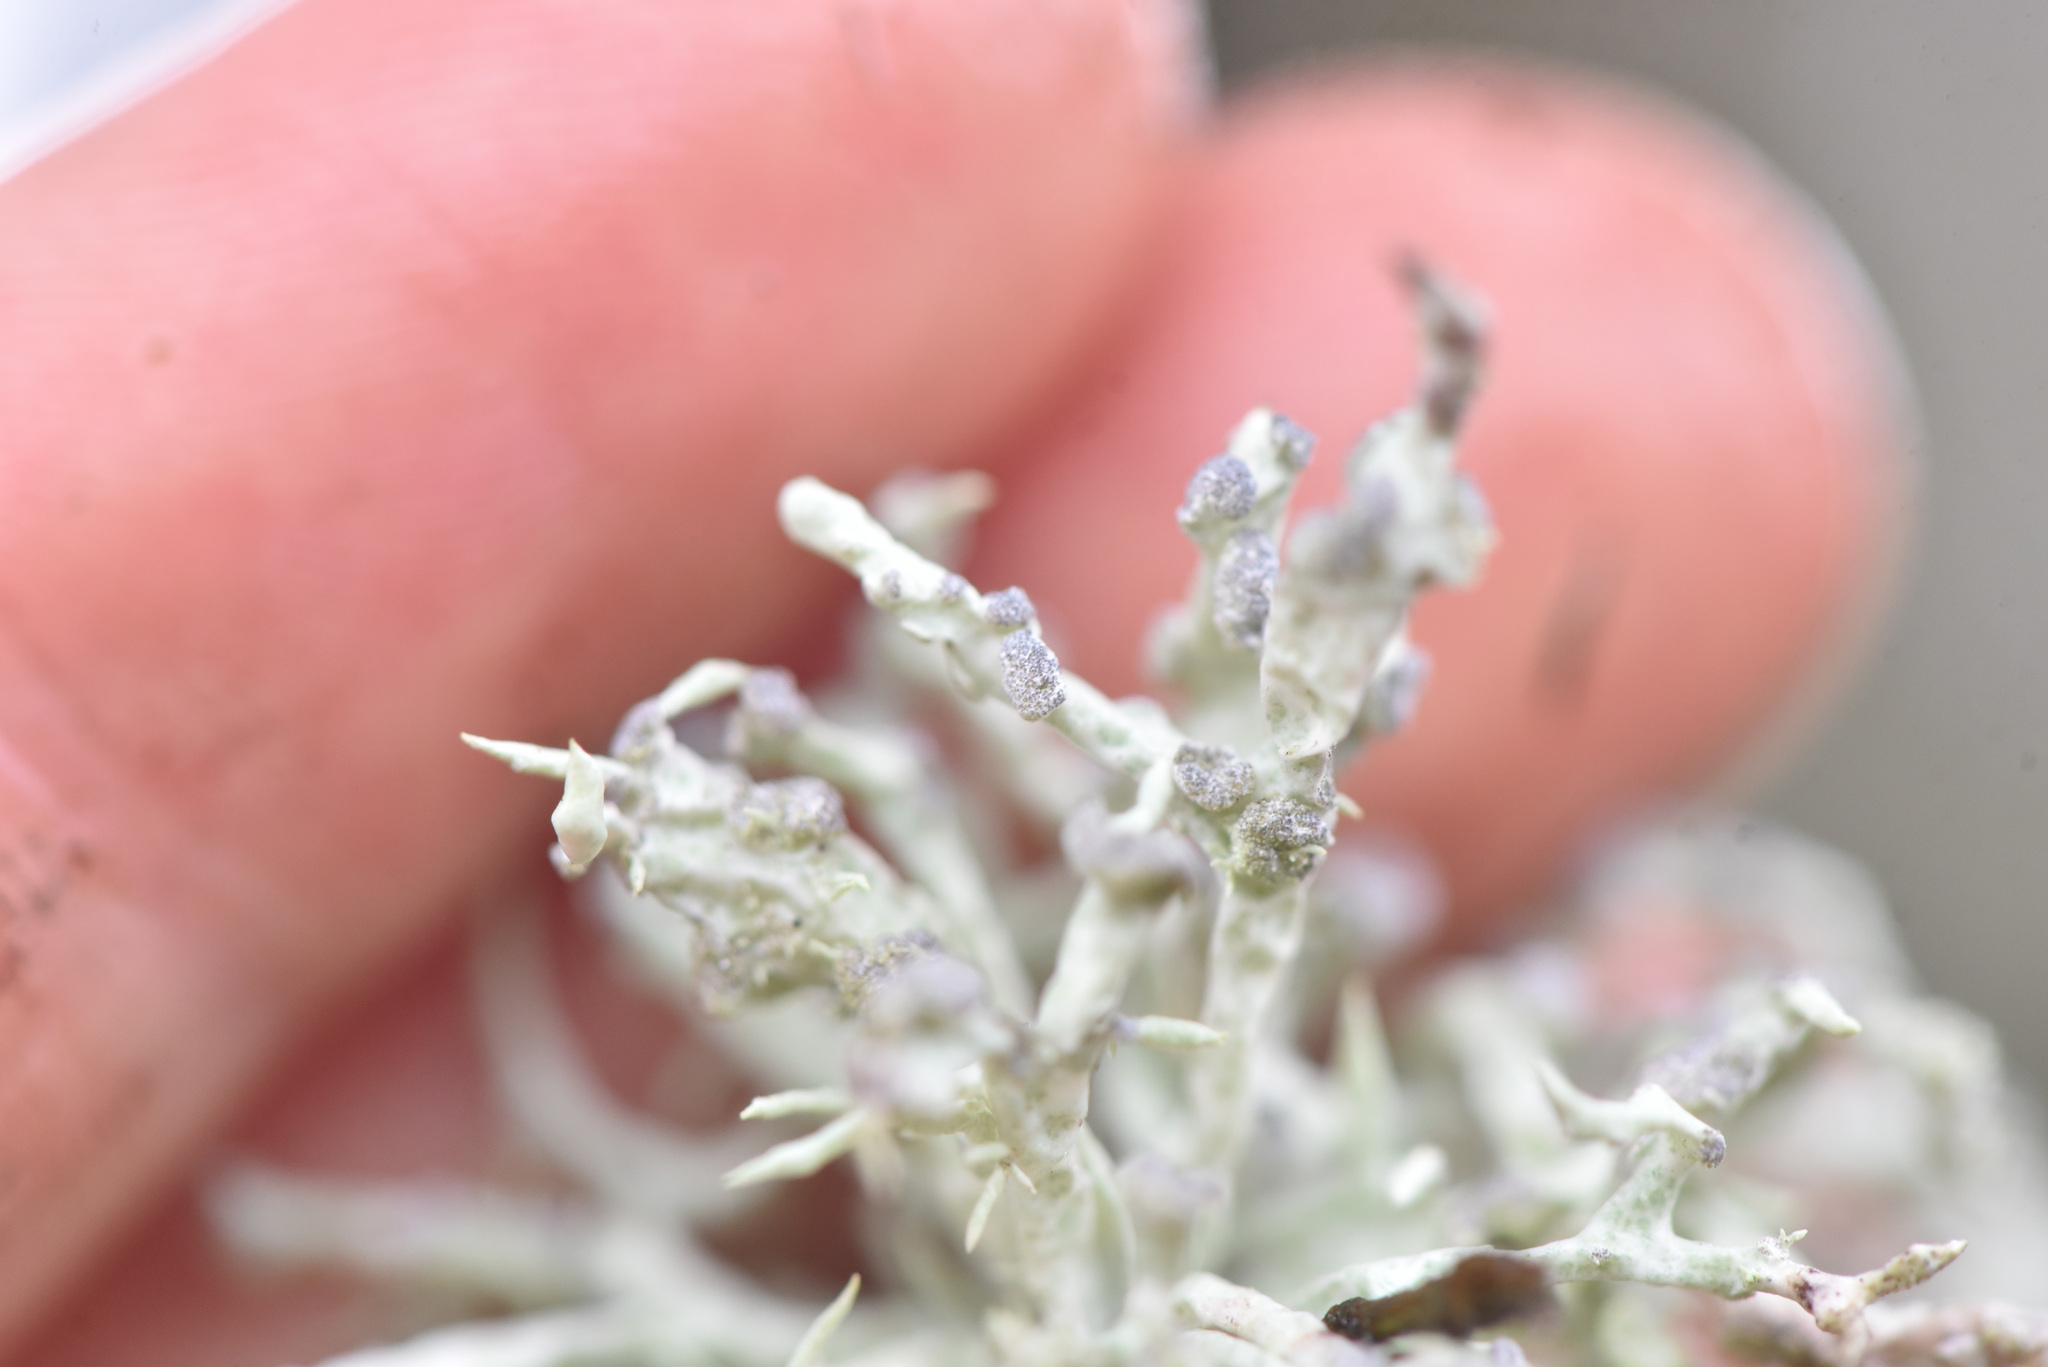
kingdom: Fungi
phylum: Ascomycota
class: Lecanoromycetes
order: Lecanorales
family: Ramalinaceae
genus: Niebla
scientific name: Niebla cephalota
